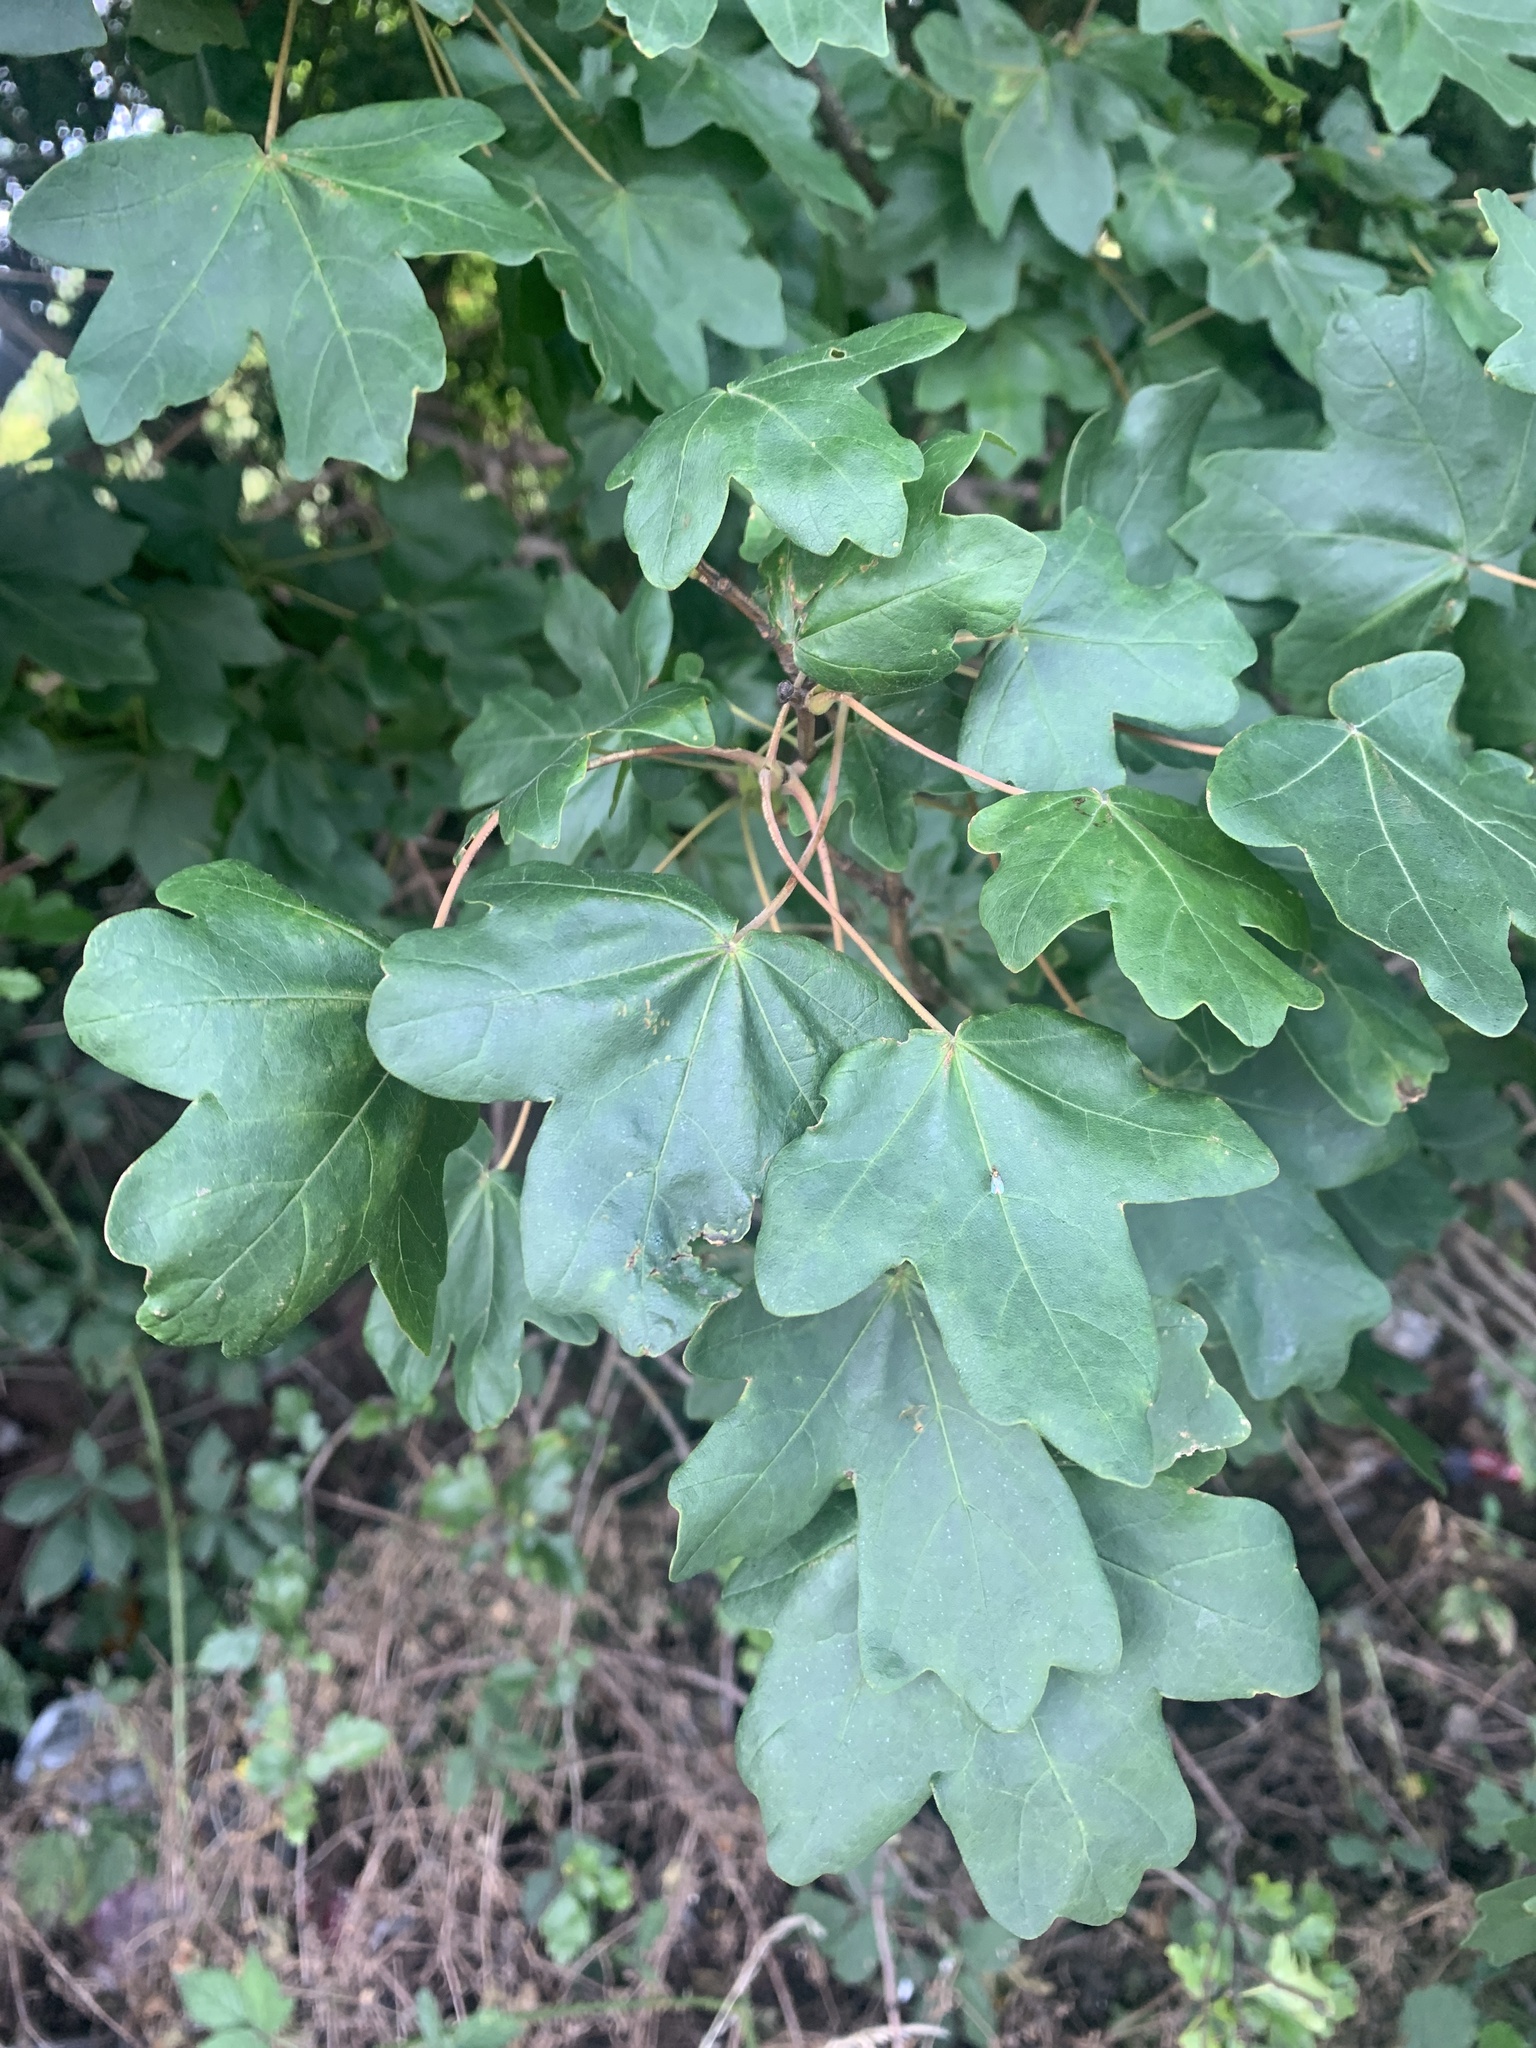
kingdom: Plantae
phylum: Tracheophyta
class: Magnoliopsida
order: Sapindales
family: Sapindaceae
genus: Acer
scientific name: Acer campestre
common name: Field maple
